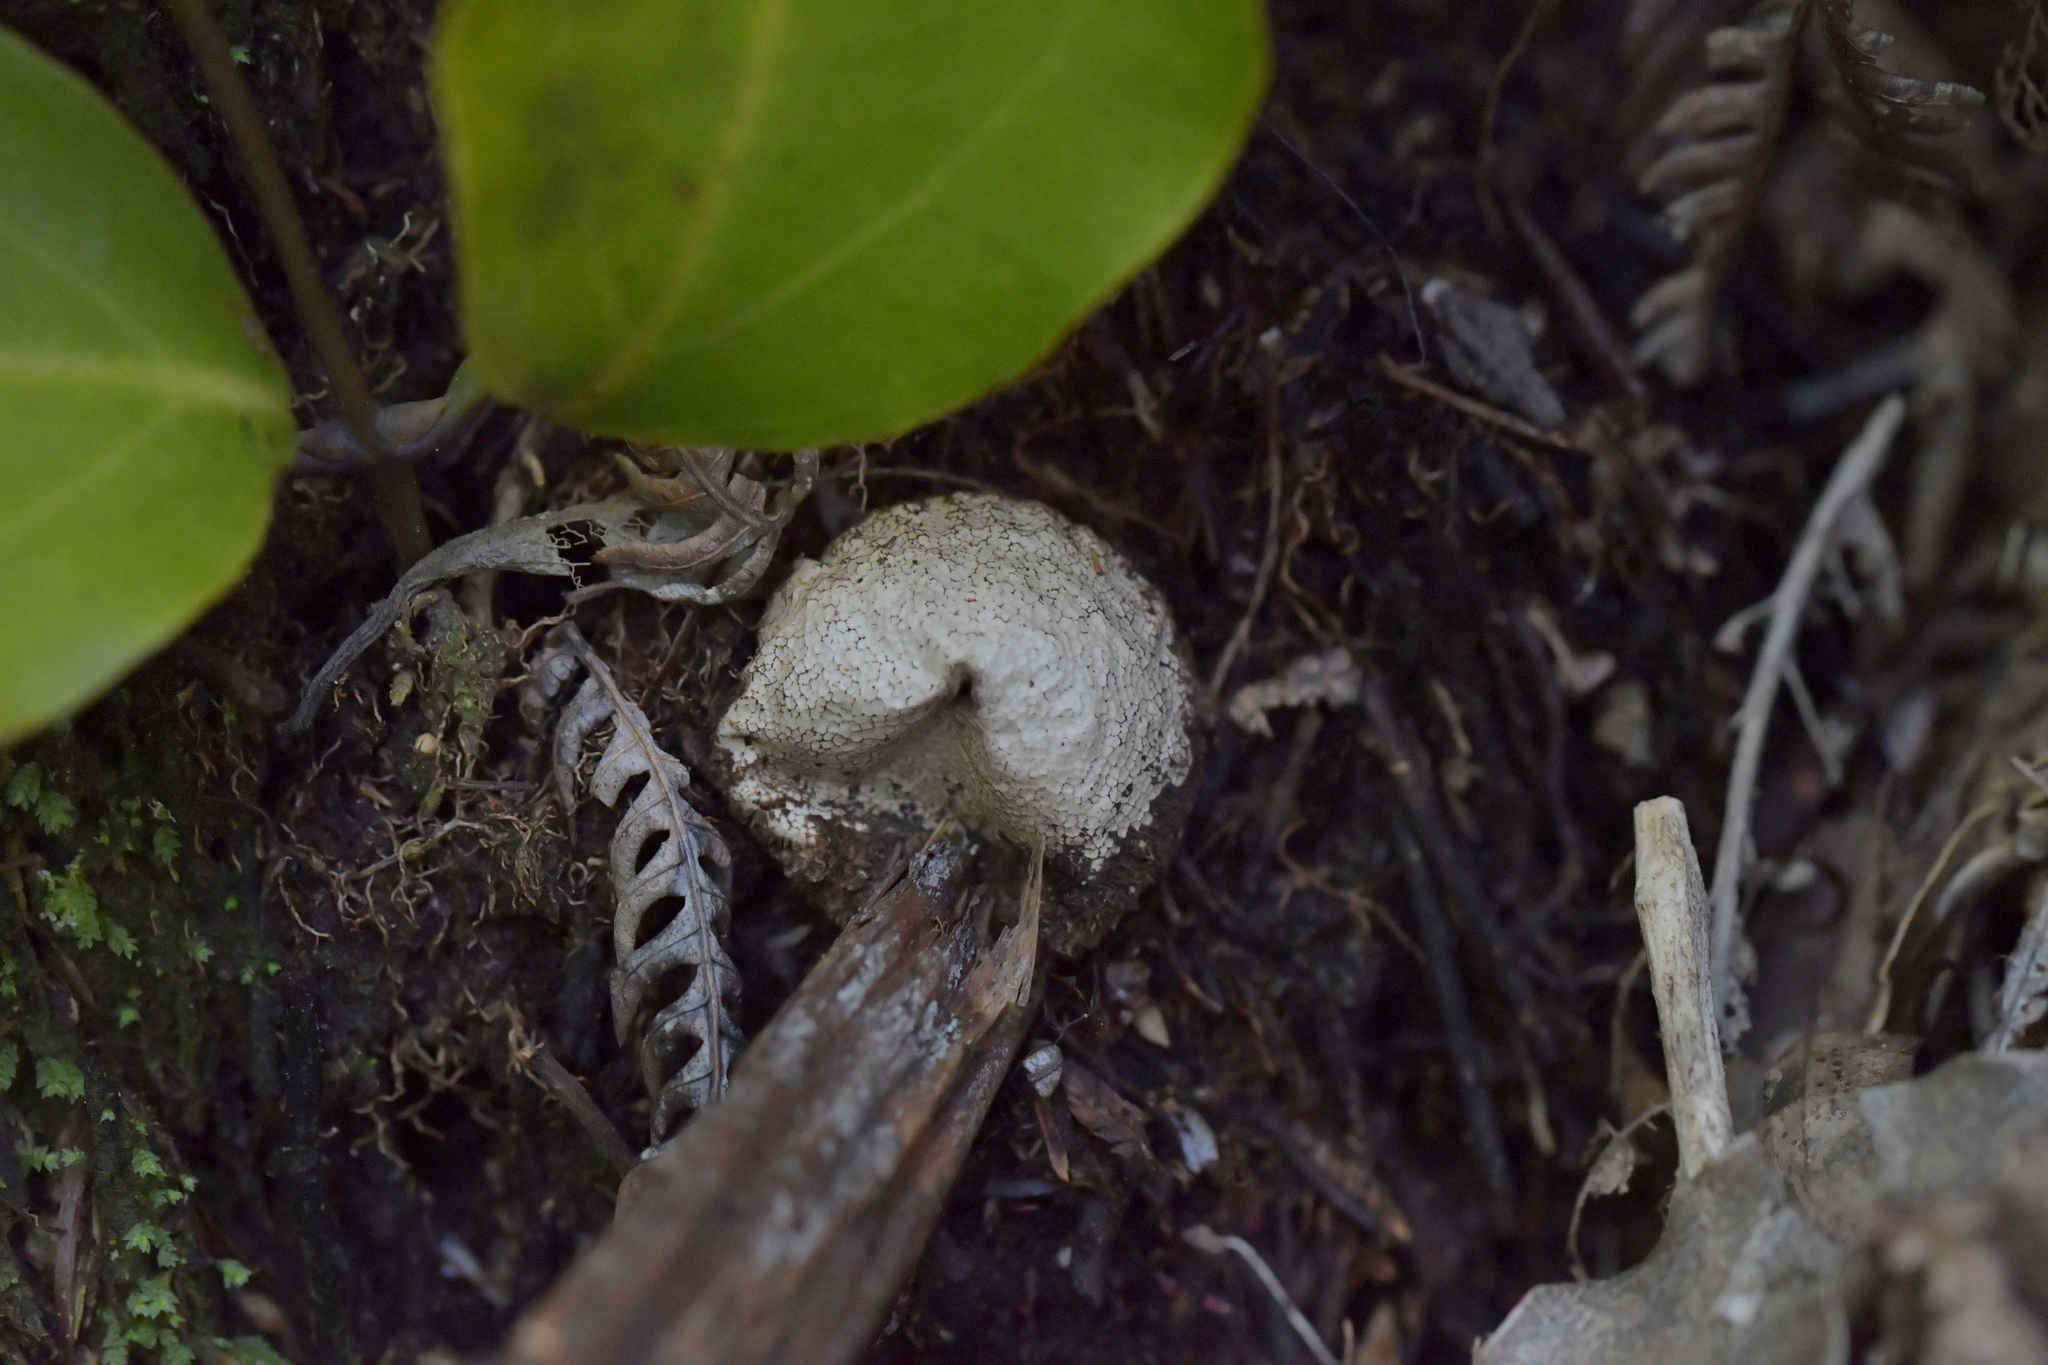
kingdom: Fungi
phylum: Basidiomycota
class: Agaricomycetes
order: Agaricales
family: Lycoperdaceae
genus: Lycoperdon
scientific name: Lycoperdon compactum
